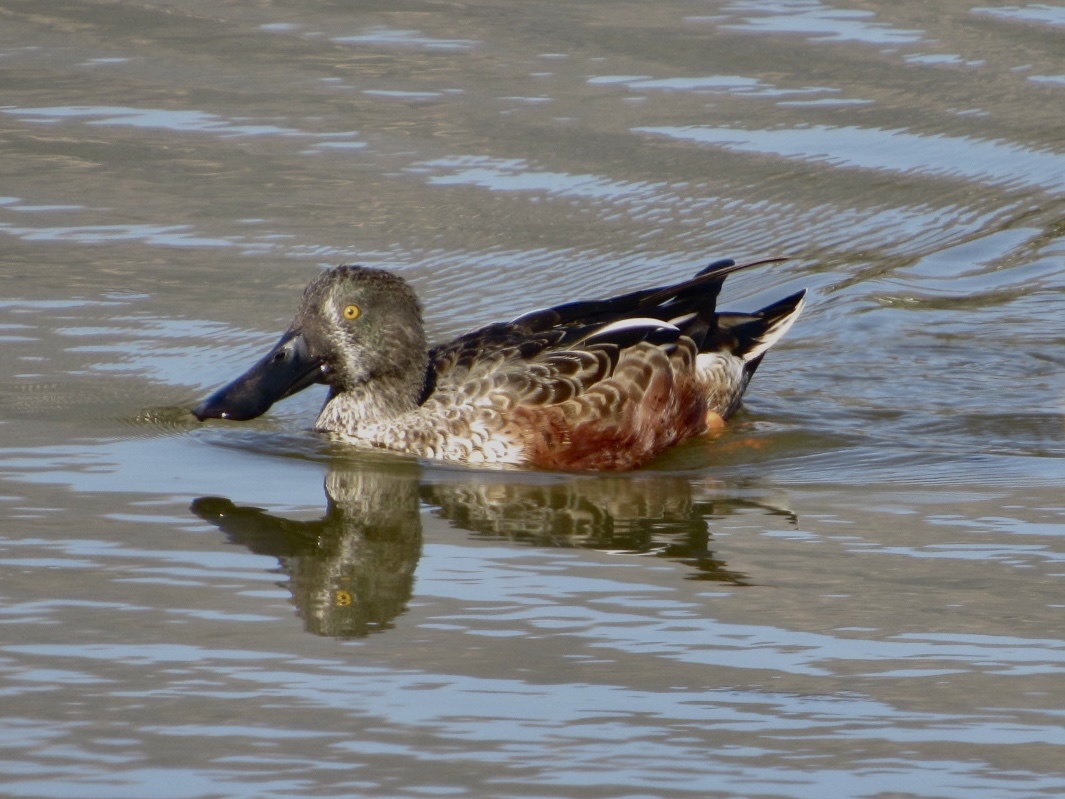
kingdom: Animalia
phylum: Chordata
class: Aves
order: Anseriformes
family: Anatidae
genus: Spatula
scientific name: Spatula clypeata
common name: Northern shoveler
